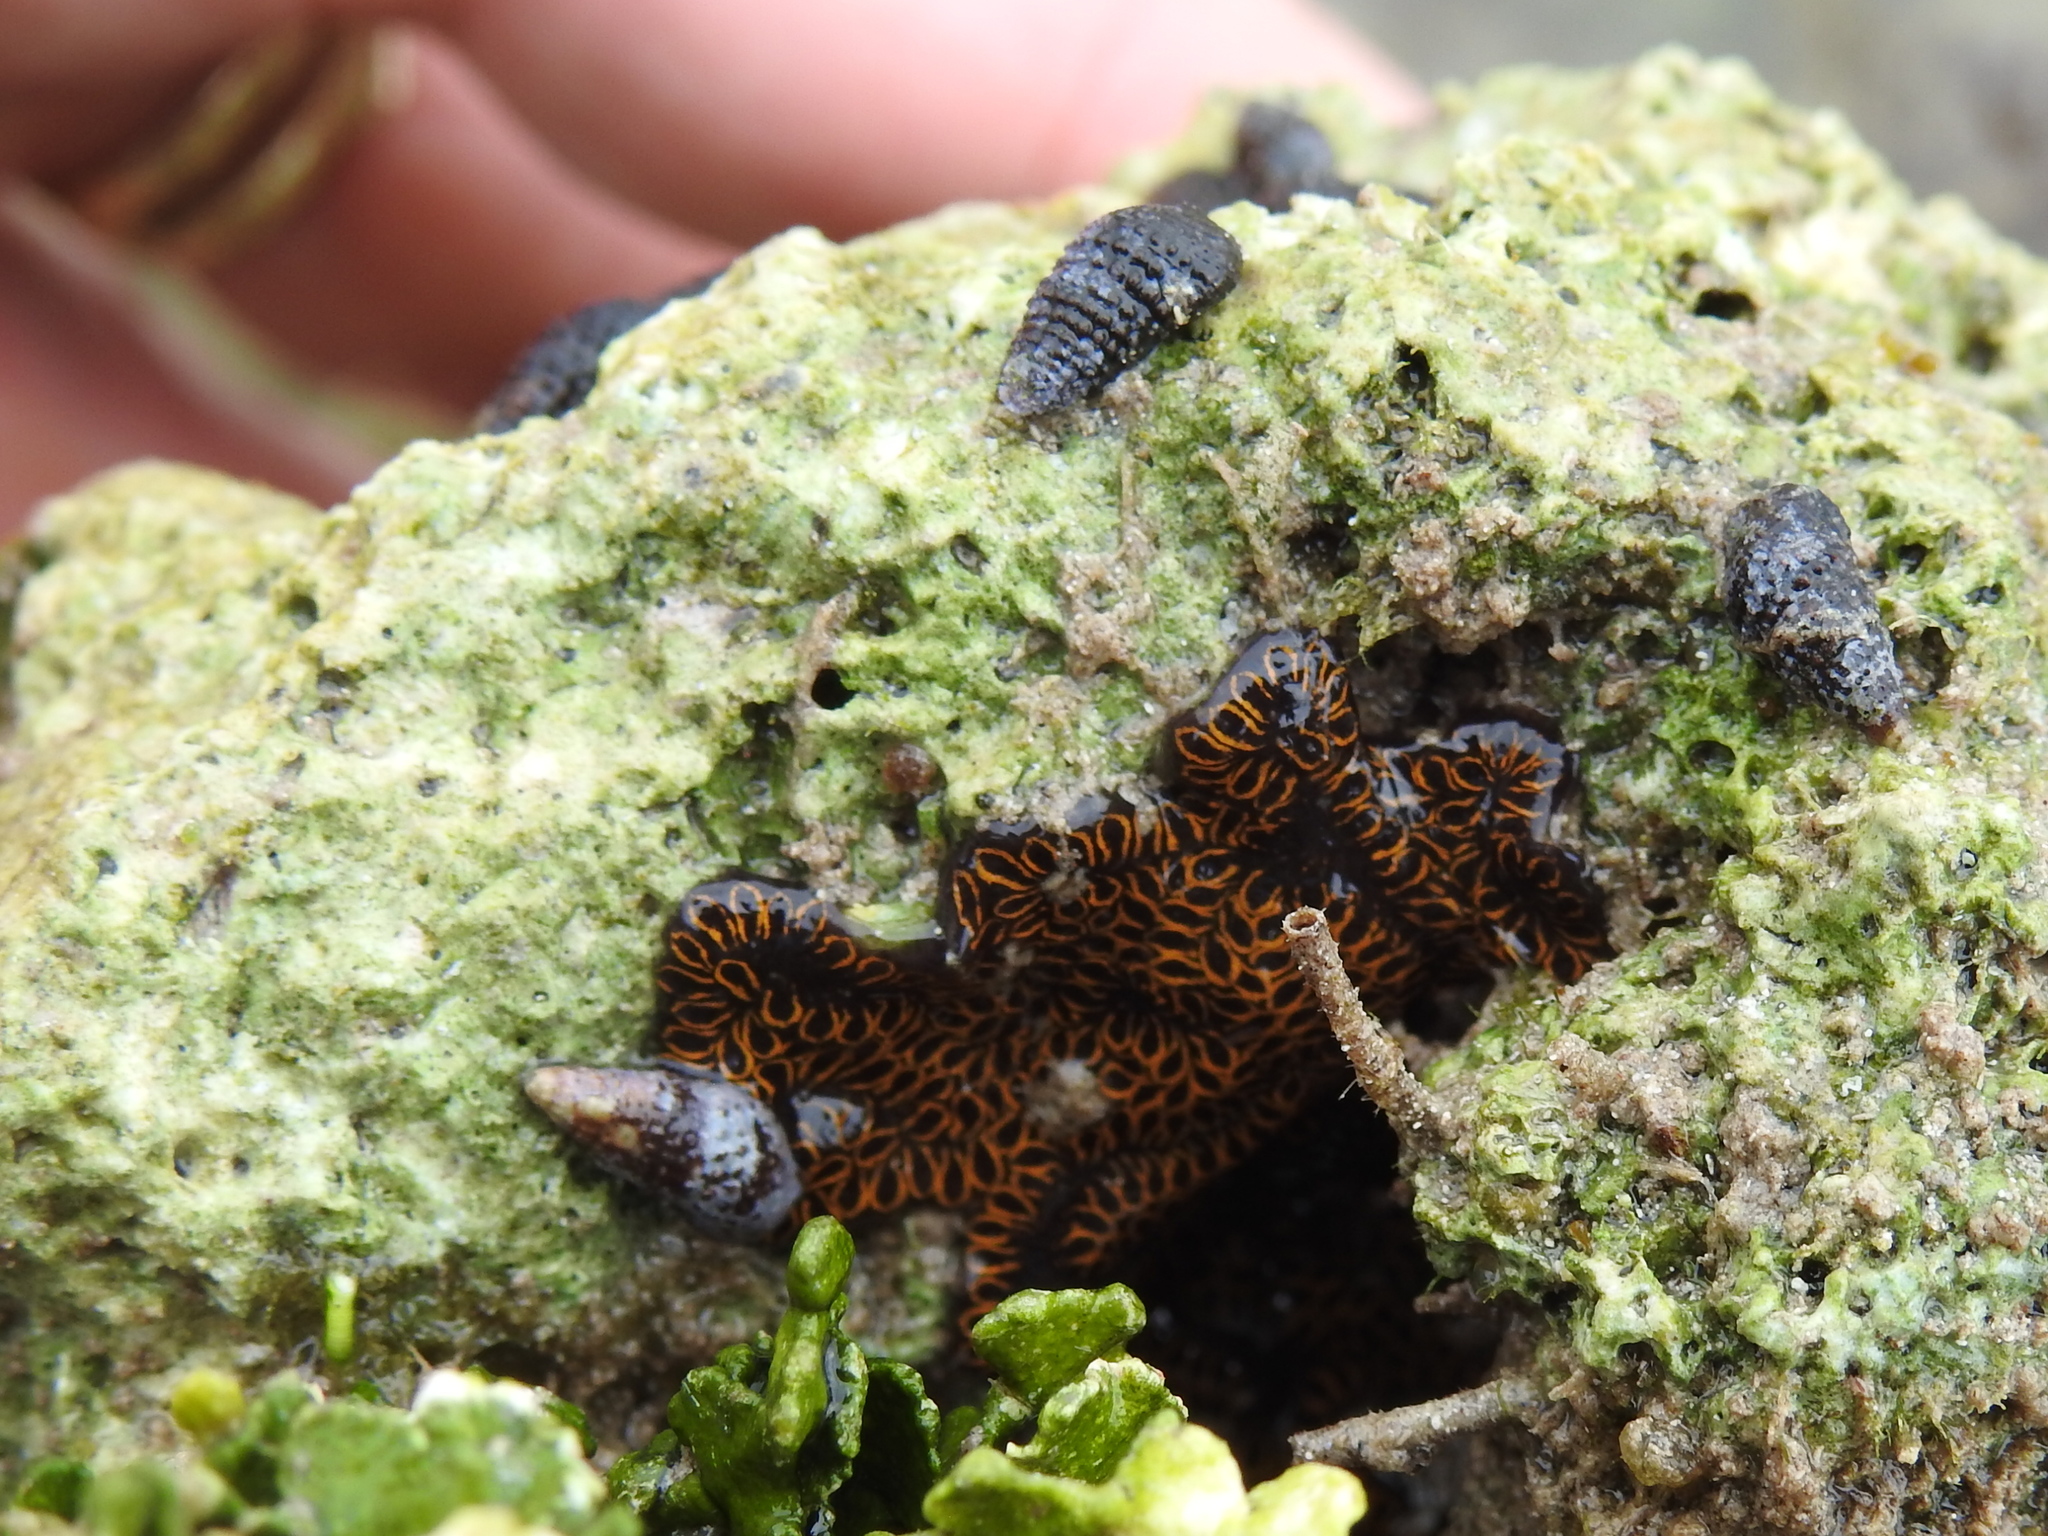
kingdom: Animalia
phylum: Chordata
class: Ascidiacea
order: Stolidobranchia
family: Styelidae
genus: Botrylloides
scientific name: Botrylloides niger
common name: Black synascidia
